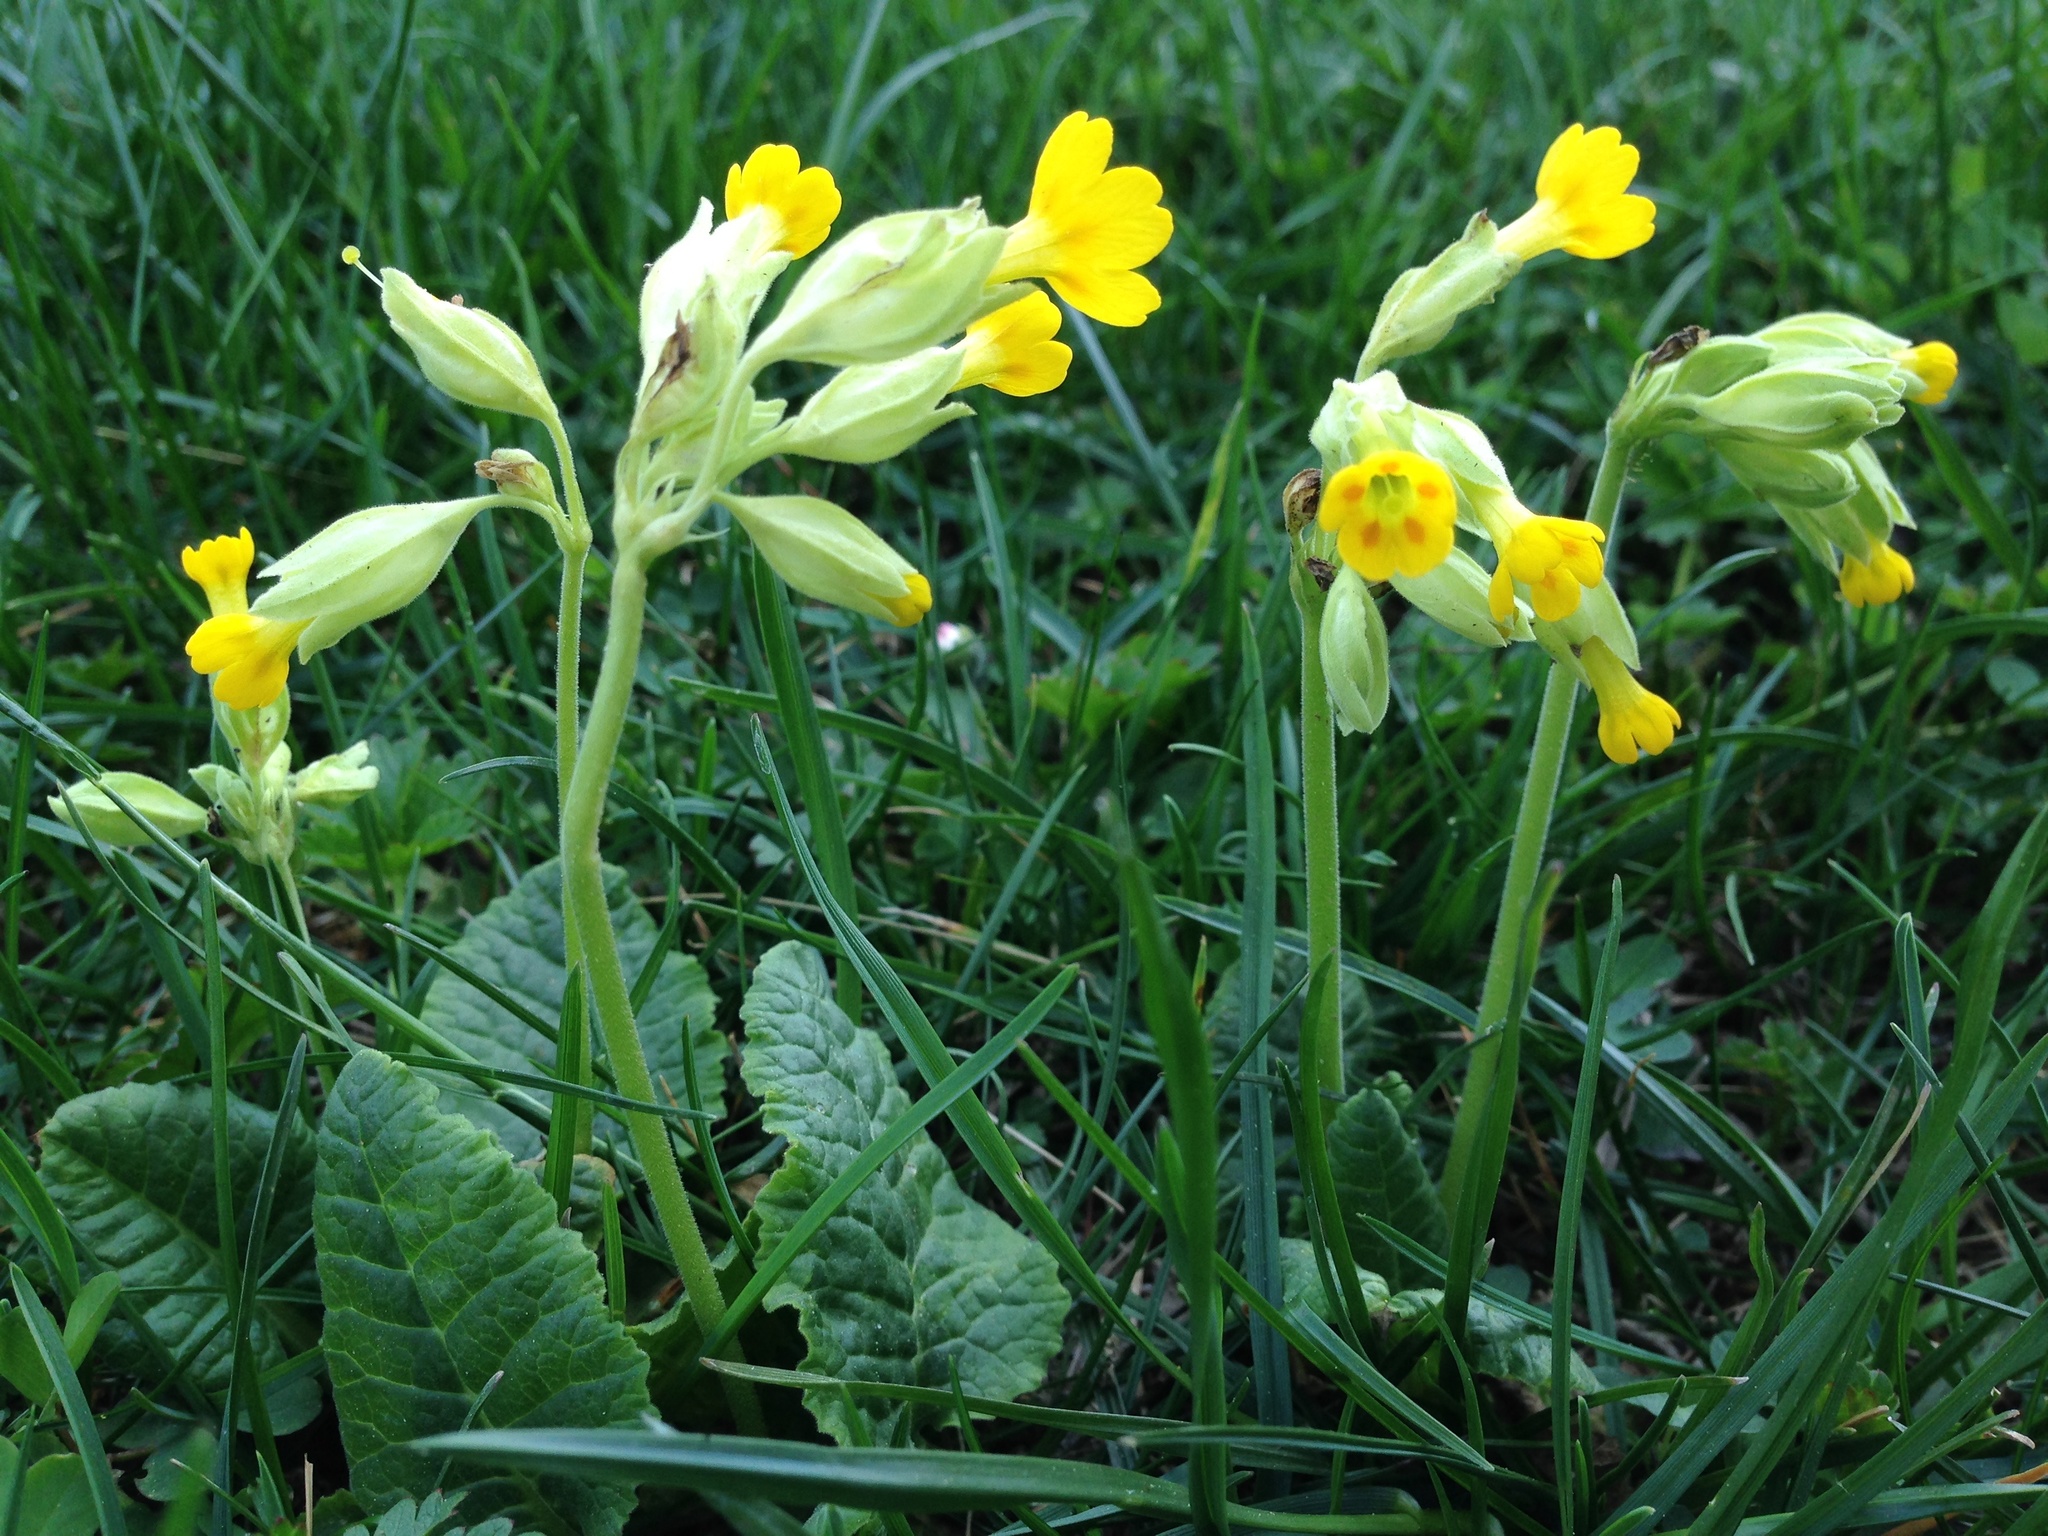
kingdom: Plantae
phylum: Tracheophyta
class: Magnoliopsida
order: Ericales
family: Primulaceae
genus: Primula
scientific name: Primula veris
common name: Cowslip
